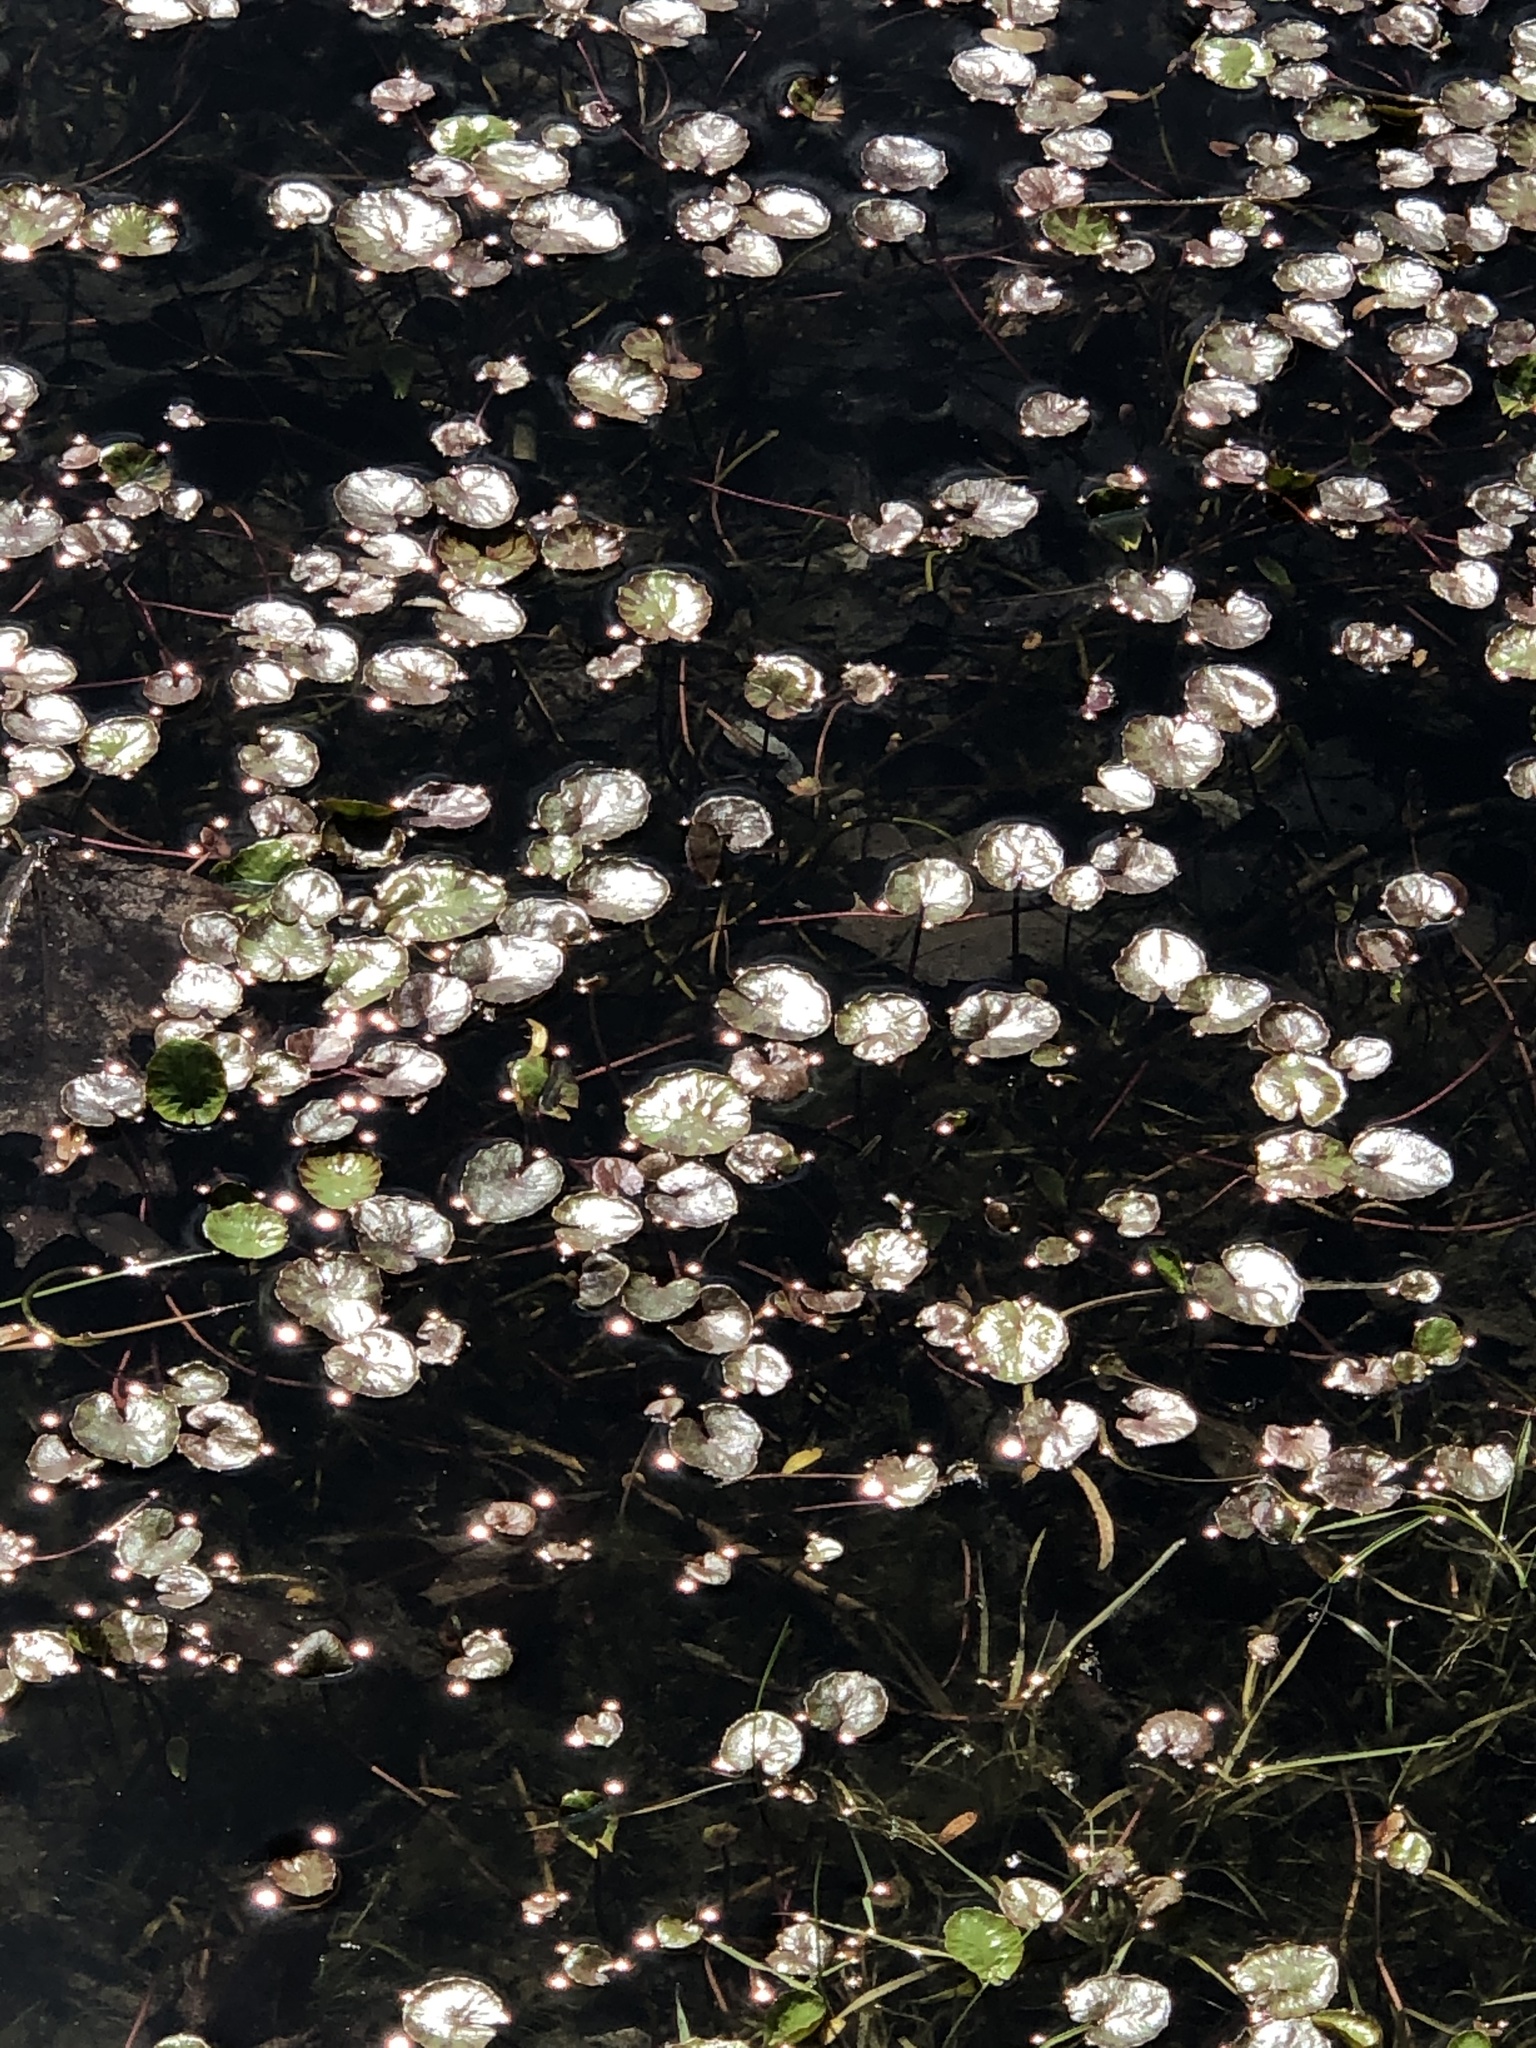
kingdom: Plantae
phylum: Tracheophyta
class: Magnoliopsida
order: Asterales
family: Menyanthaceae
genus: Nymphoides
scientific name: Nymphoides peltata
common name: Fringed water-lily
